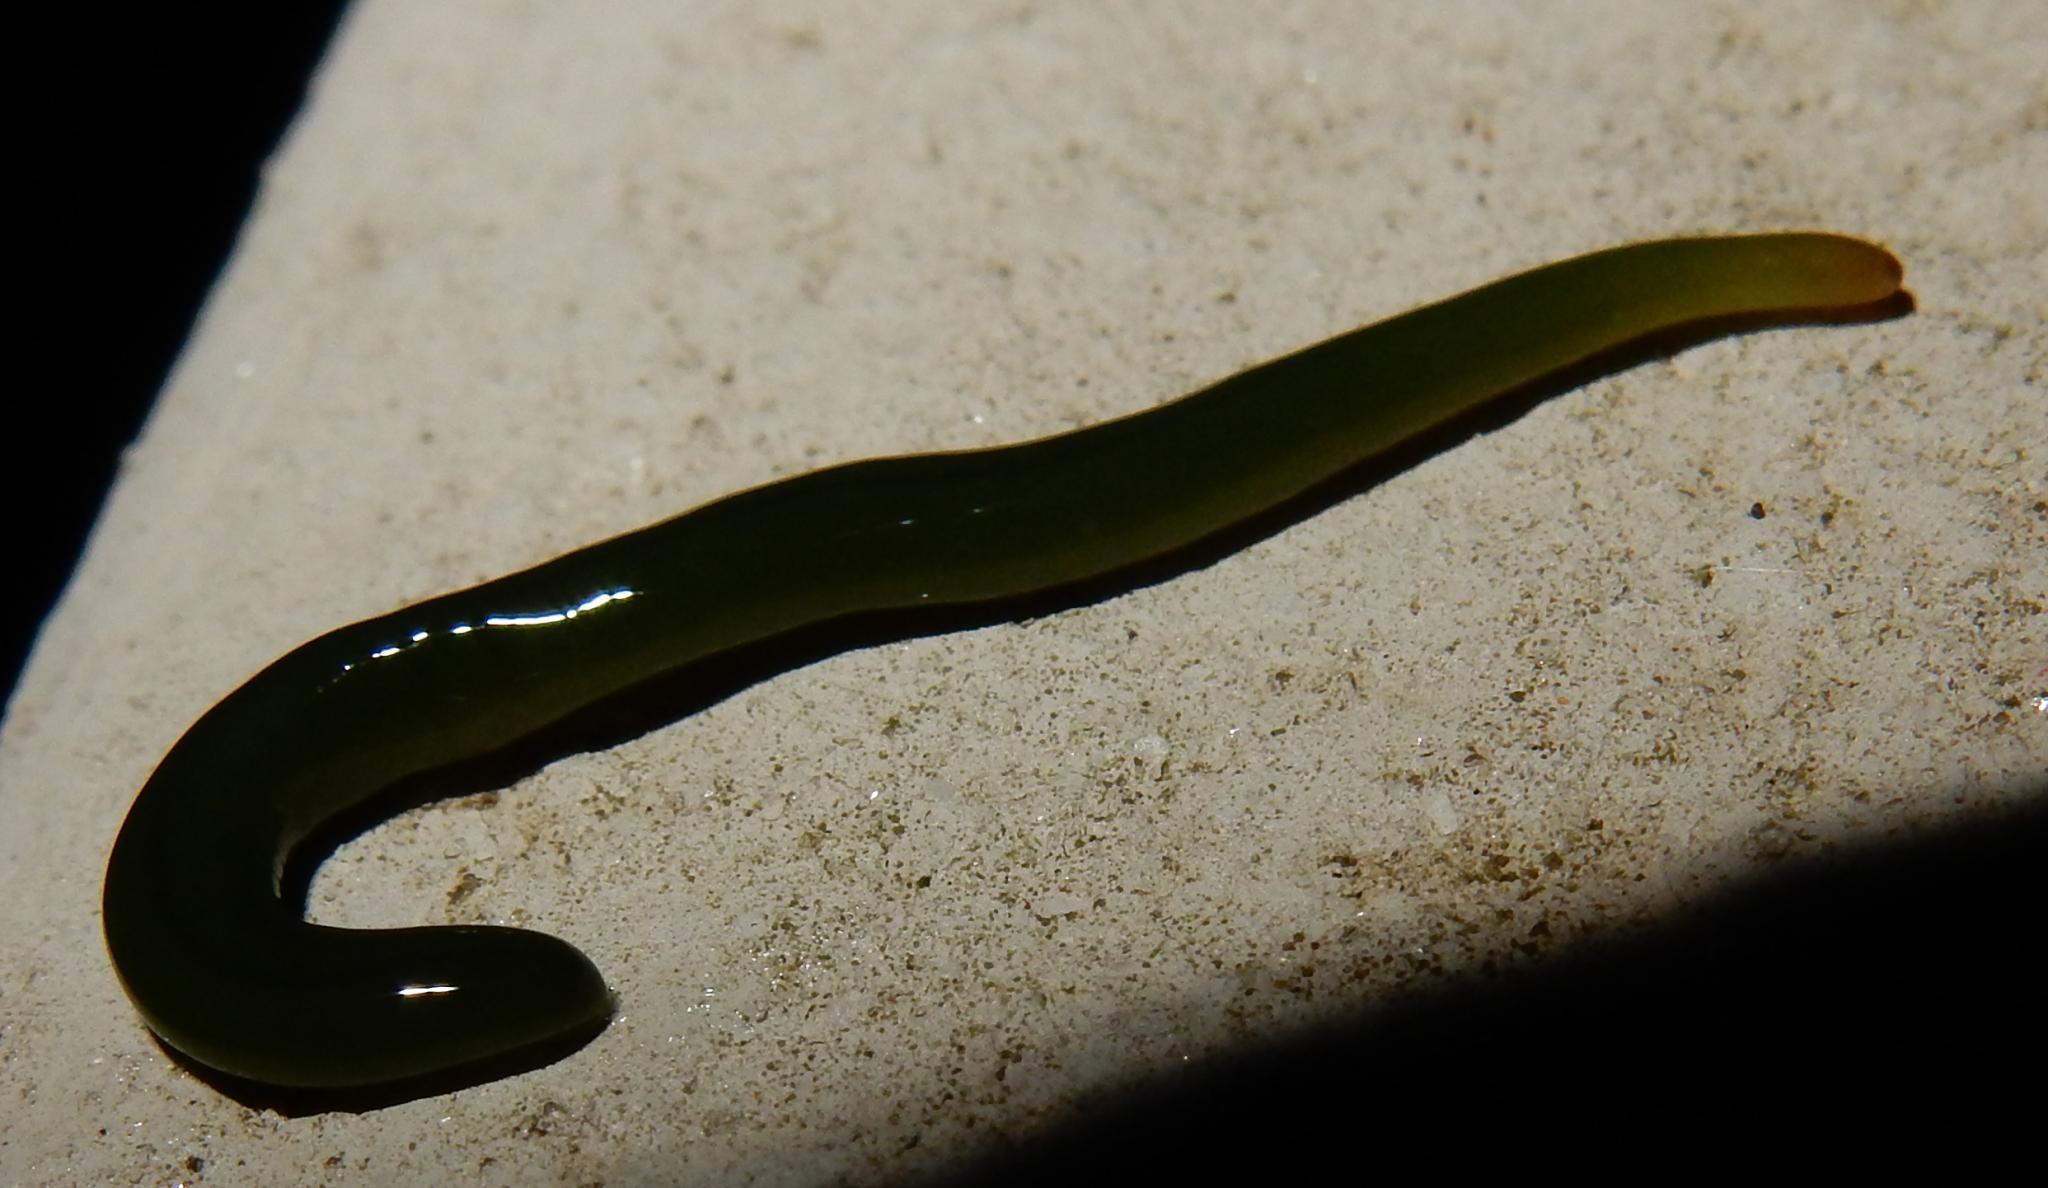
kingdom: Animalia
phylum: Platyhelminthes
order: Tricladida
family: Geoplanidae
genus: Microplana
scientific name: Microplana viridis
